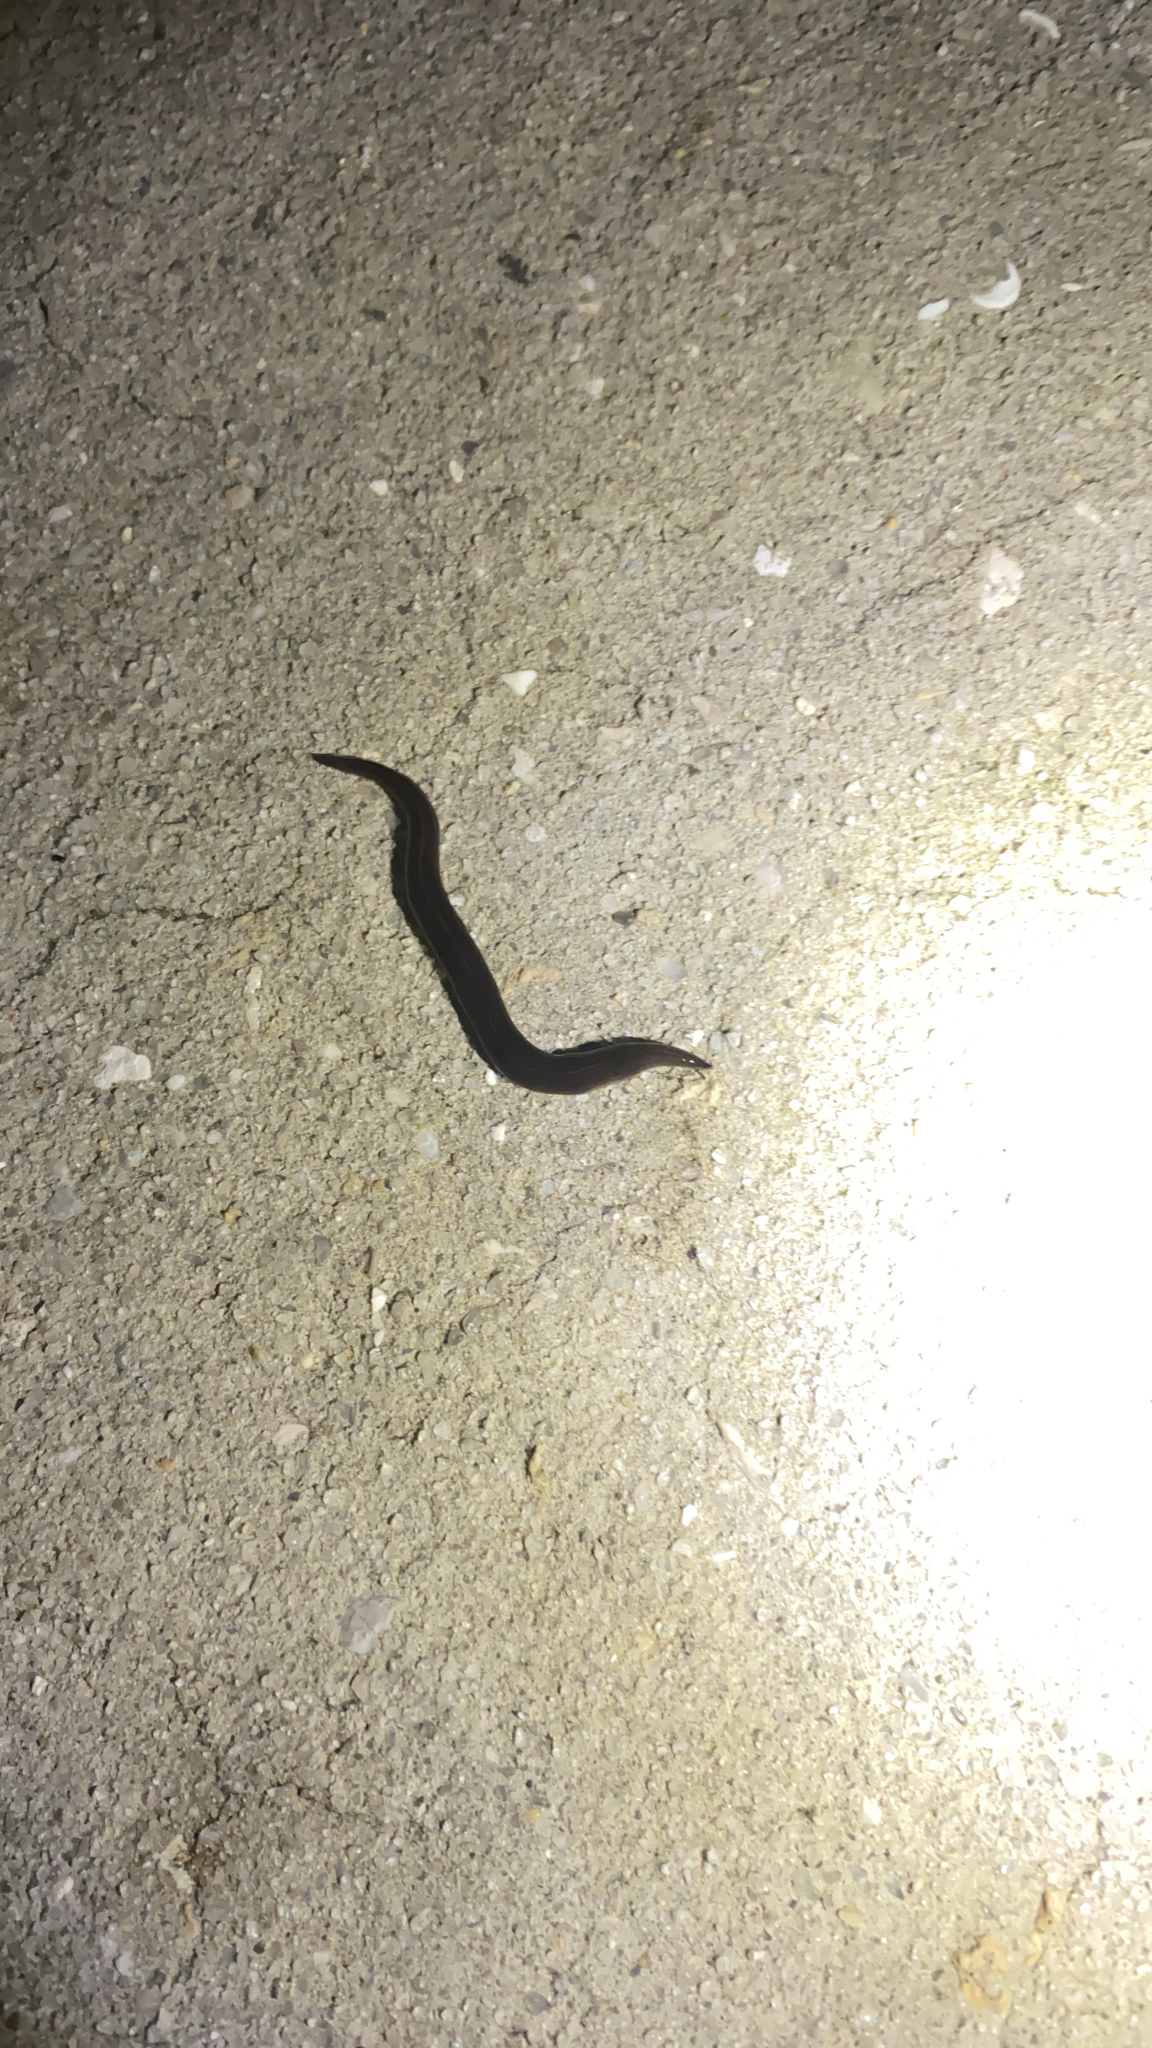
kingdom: Animalia
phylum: Platyhelminthes
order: Tricladida
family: Geoplanidae
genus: Platydemus
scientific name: Platydemus manokwari
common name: New guinea flatworm
